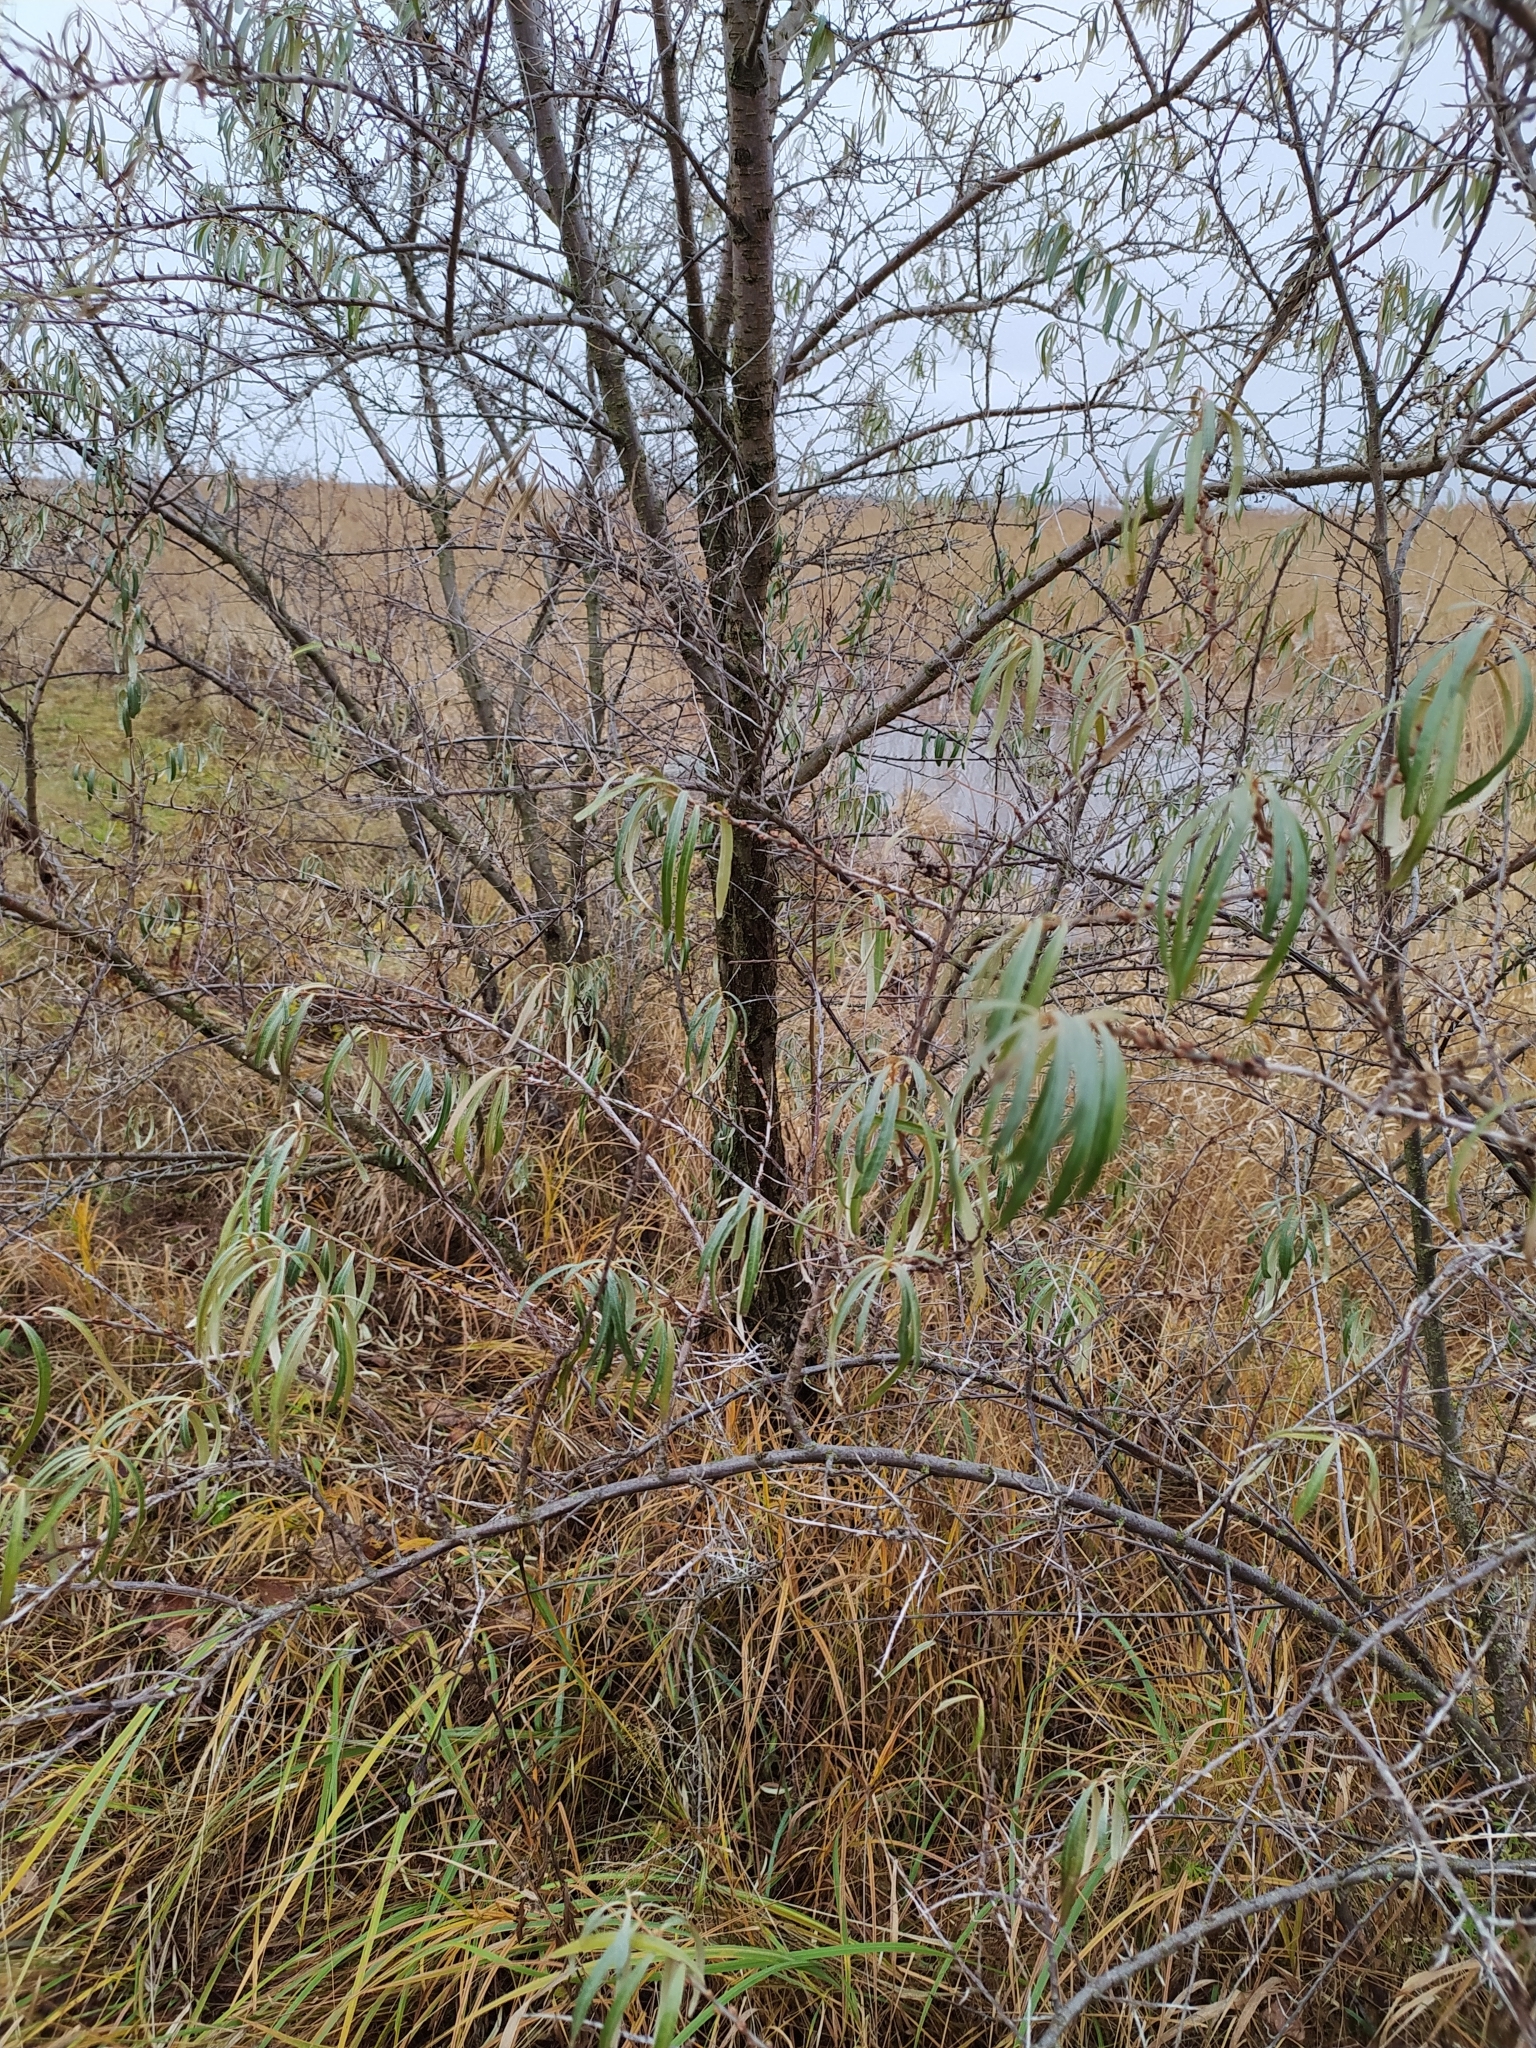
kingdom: Plantae
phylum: Tracheophyta
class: Magnoliopsida
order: Rosales
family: Elaeagnaceae
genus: Hippophae
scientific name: Hippophae rhamnoides
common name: Sea-buckthorn
